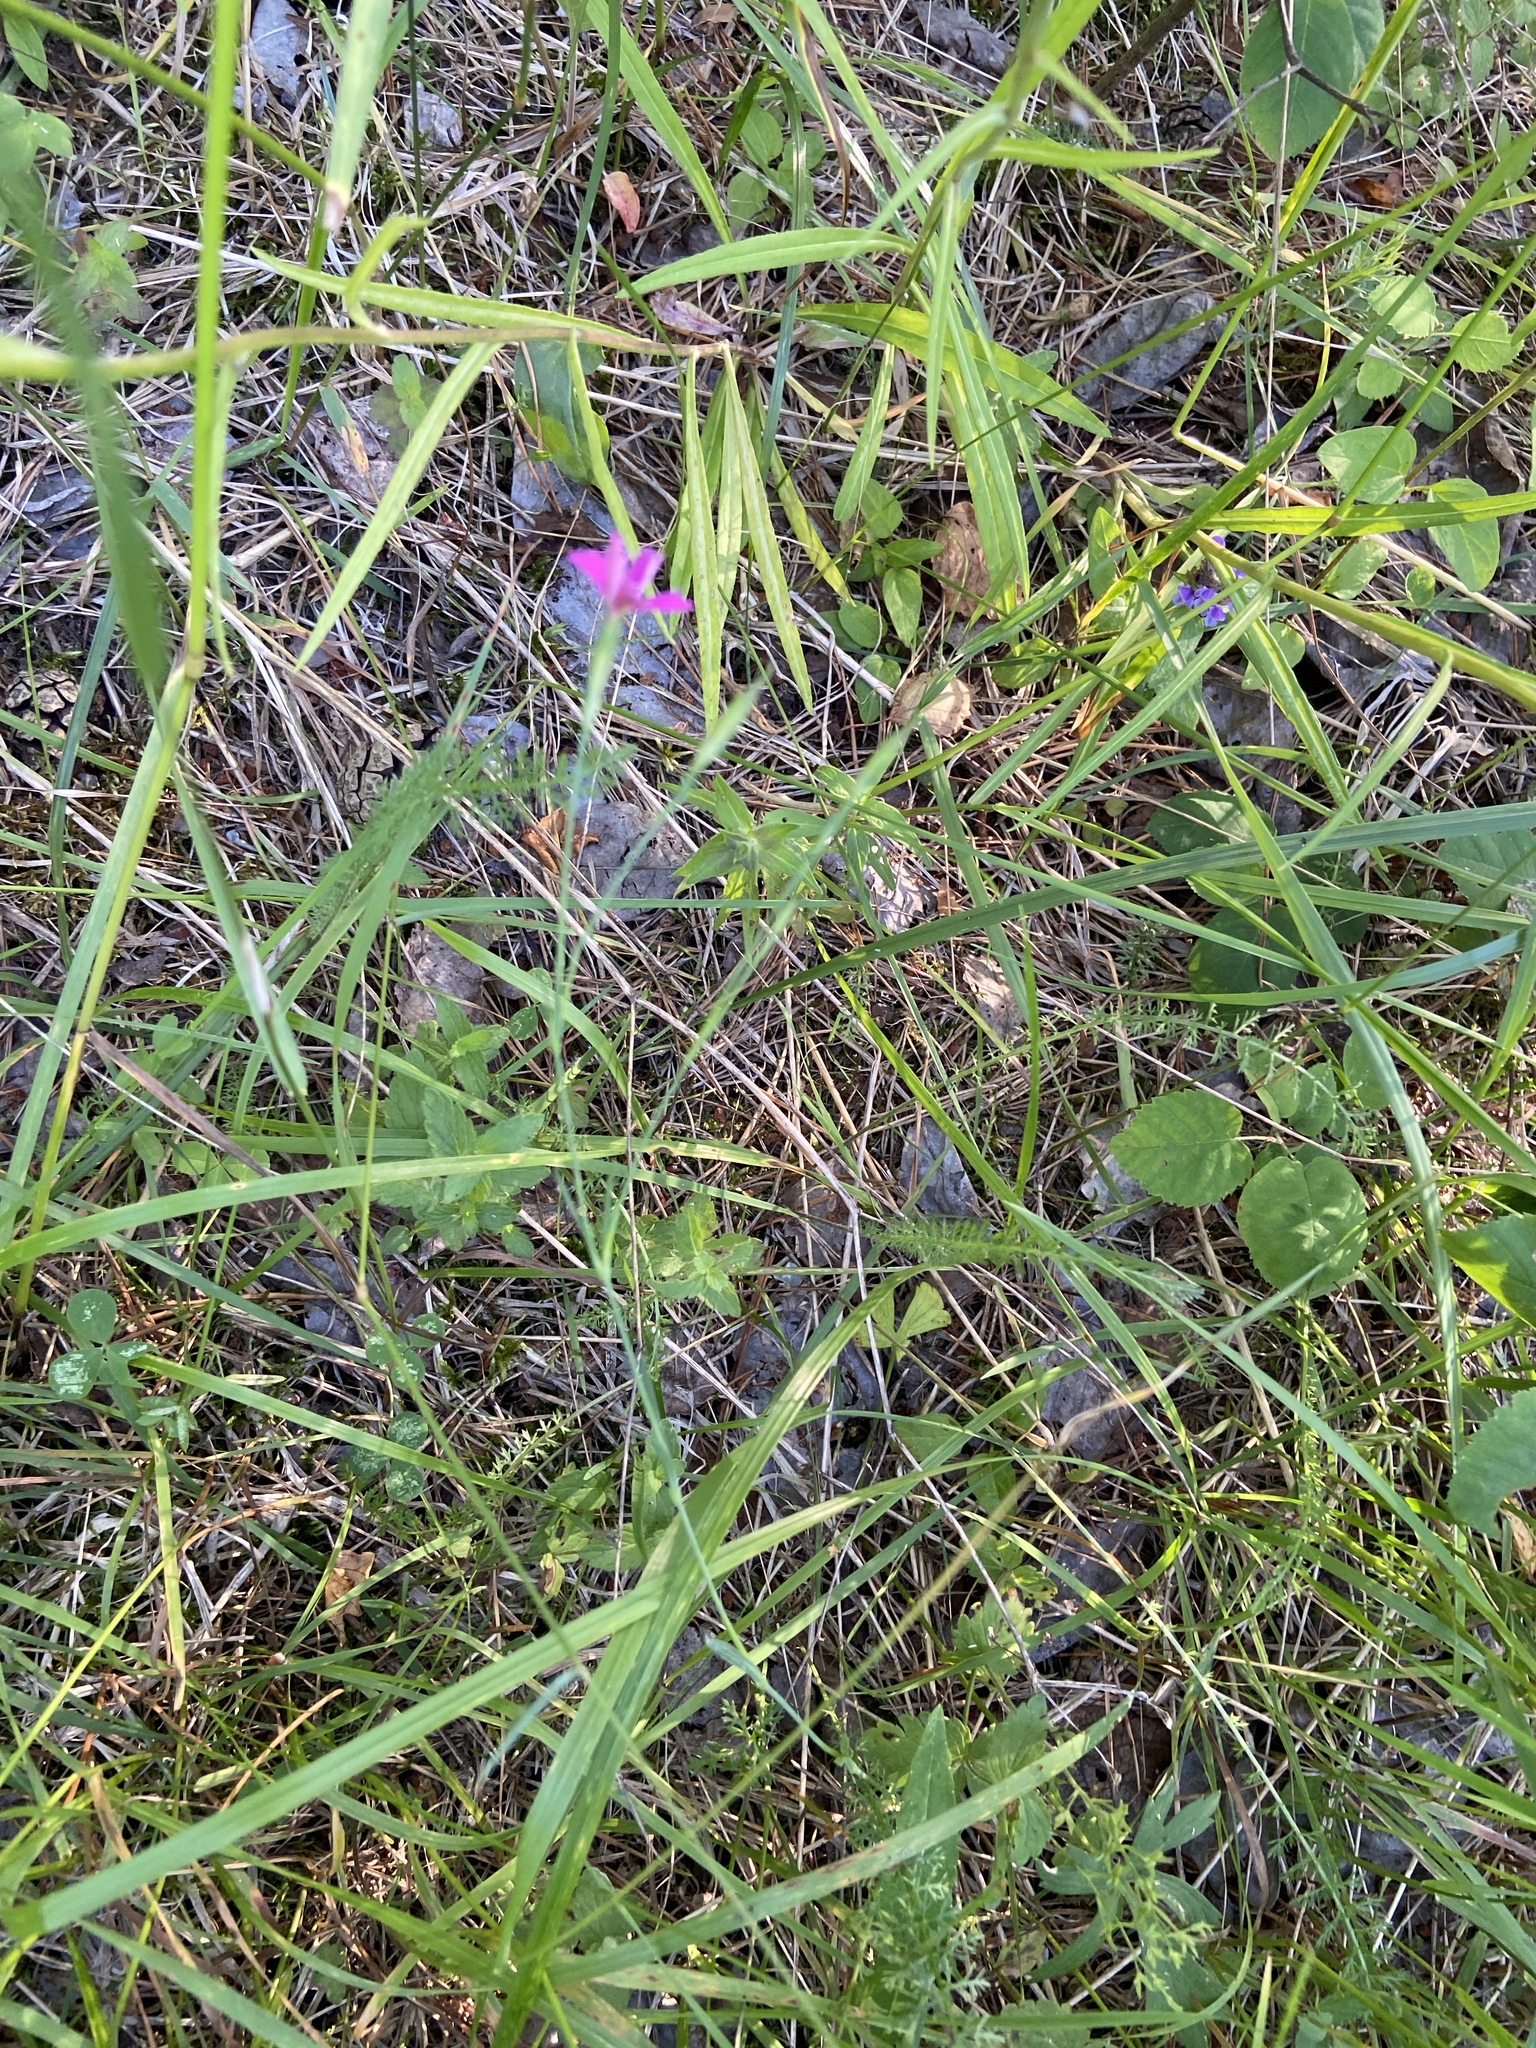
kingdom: Plantae
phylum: Tracheophyta
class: Magnoliopsida
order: Caryophyllales
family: Caryophyllaceae
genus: Dianthus
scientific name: Dianthus deltoides
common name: Maiden pink
